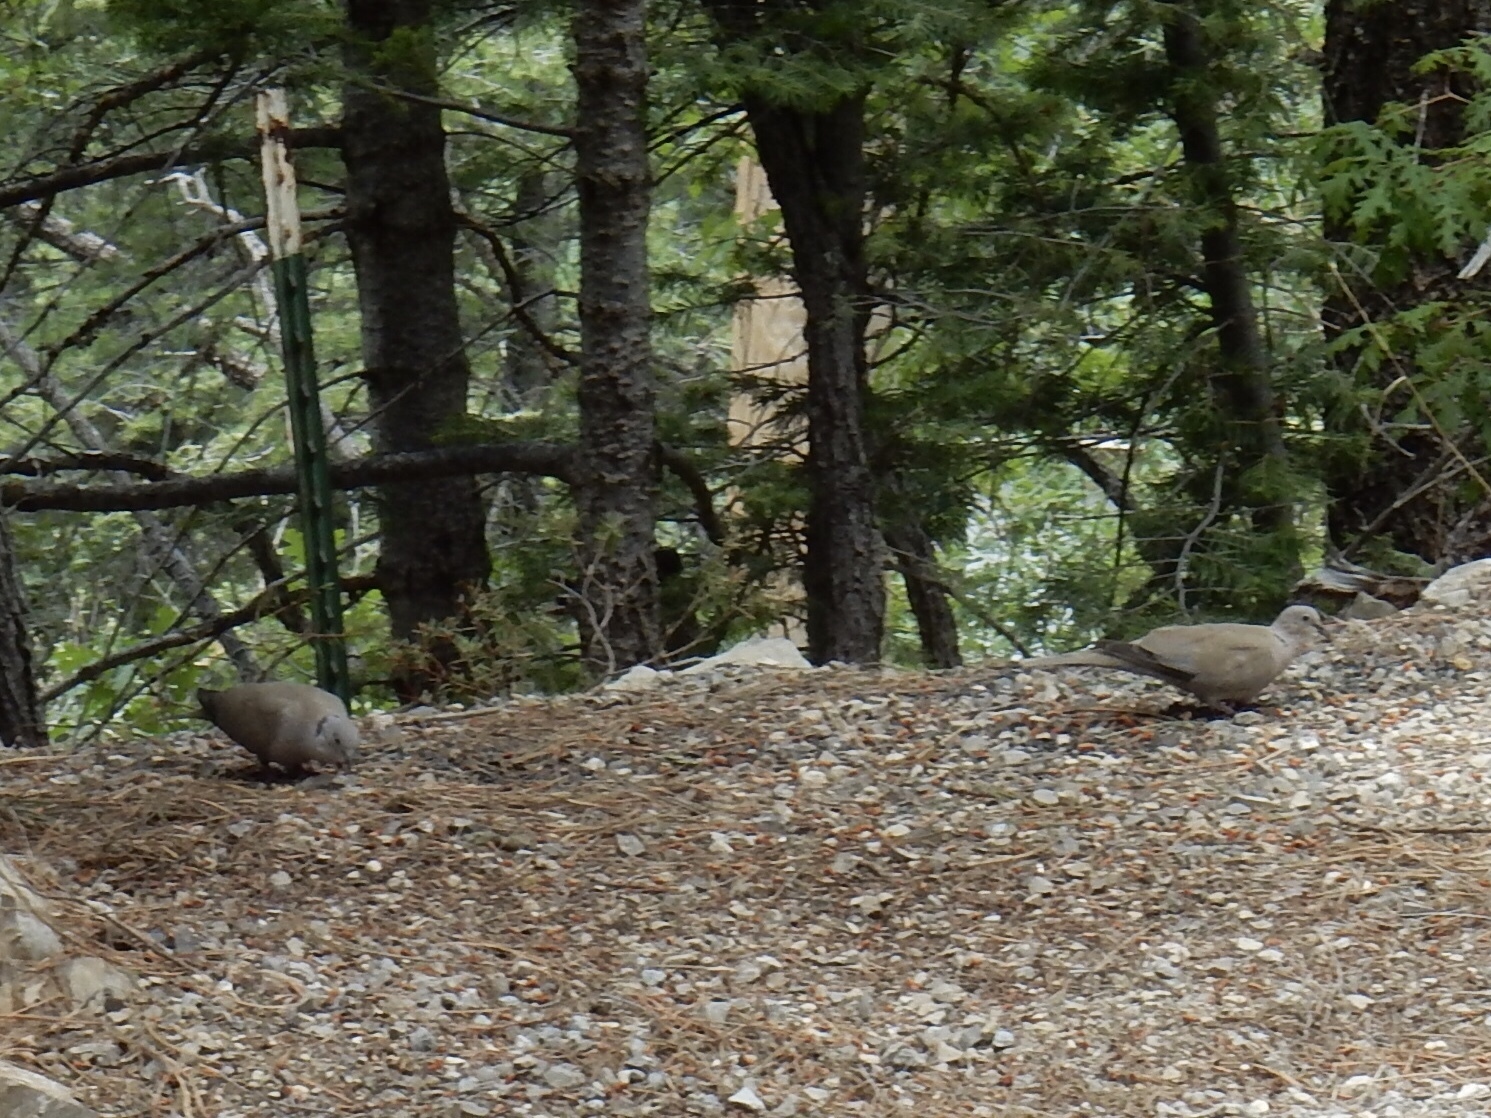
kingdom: Animalia
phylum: Chordata
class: Aves
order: Columbiformes
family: Columbidae
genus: Streptopelia
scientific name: Streptopelia decaocto
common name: Eurasian collared dove
